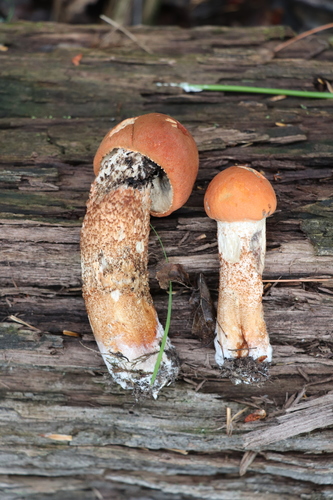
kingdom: Fungi
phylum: Basidiomycota
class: Agaricomycetes
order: Boletales
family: Boletaceae
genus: Leccinum
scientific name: Leccinum aurantiacum
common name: Orange bolete
